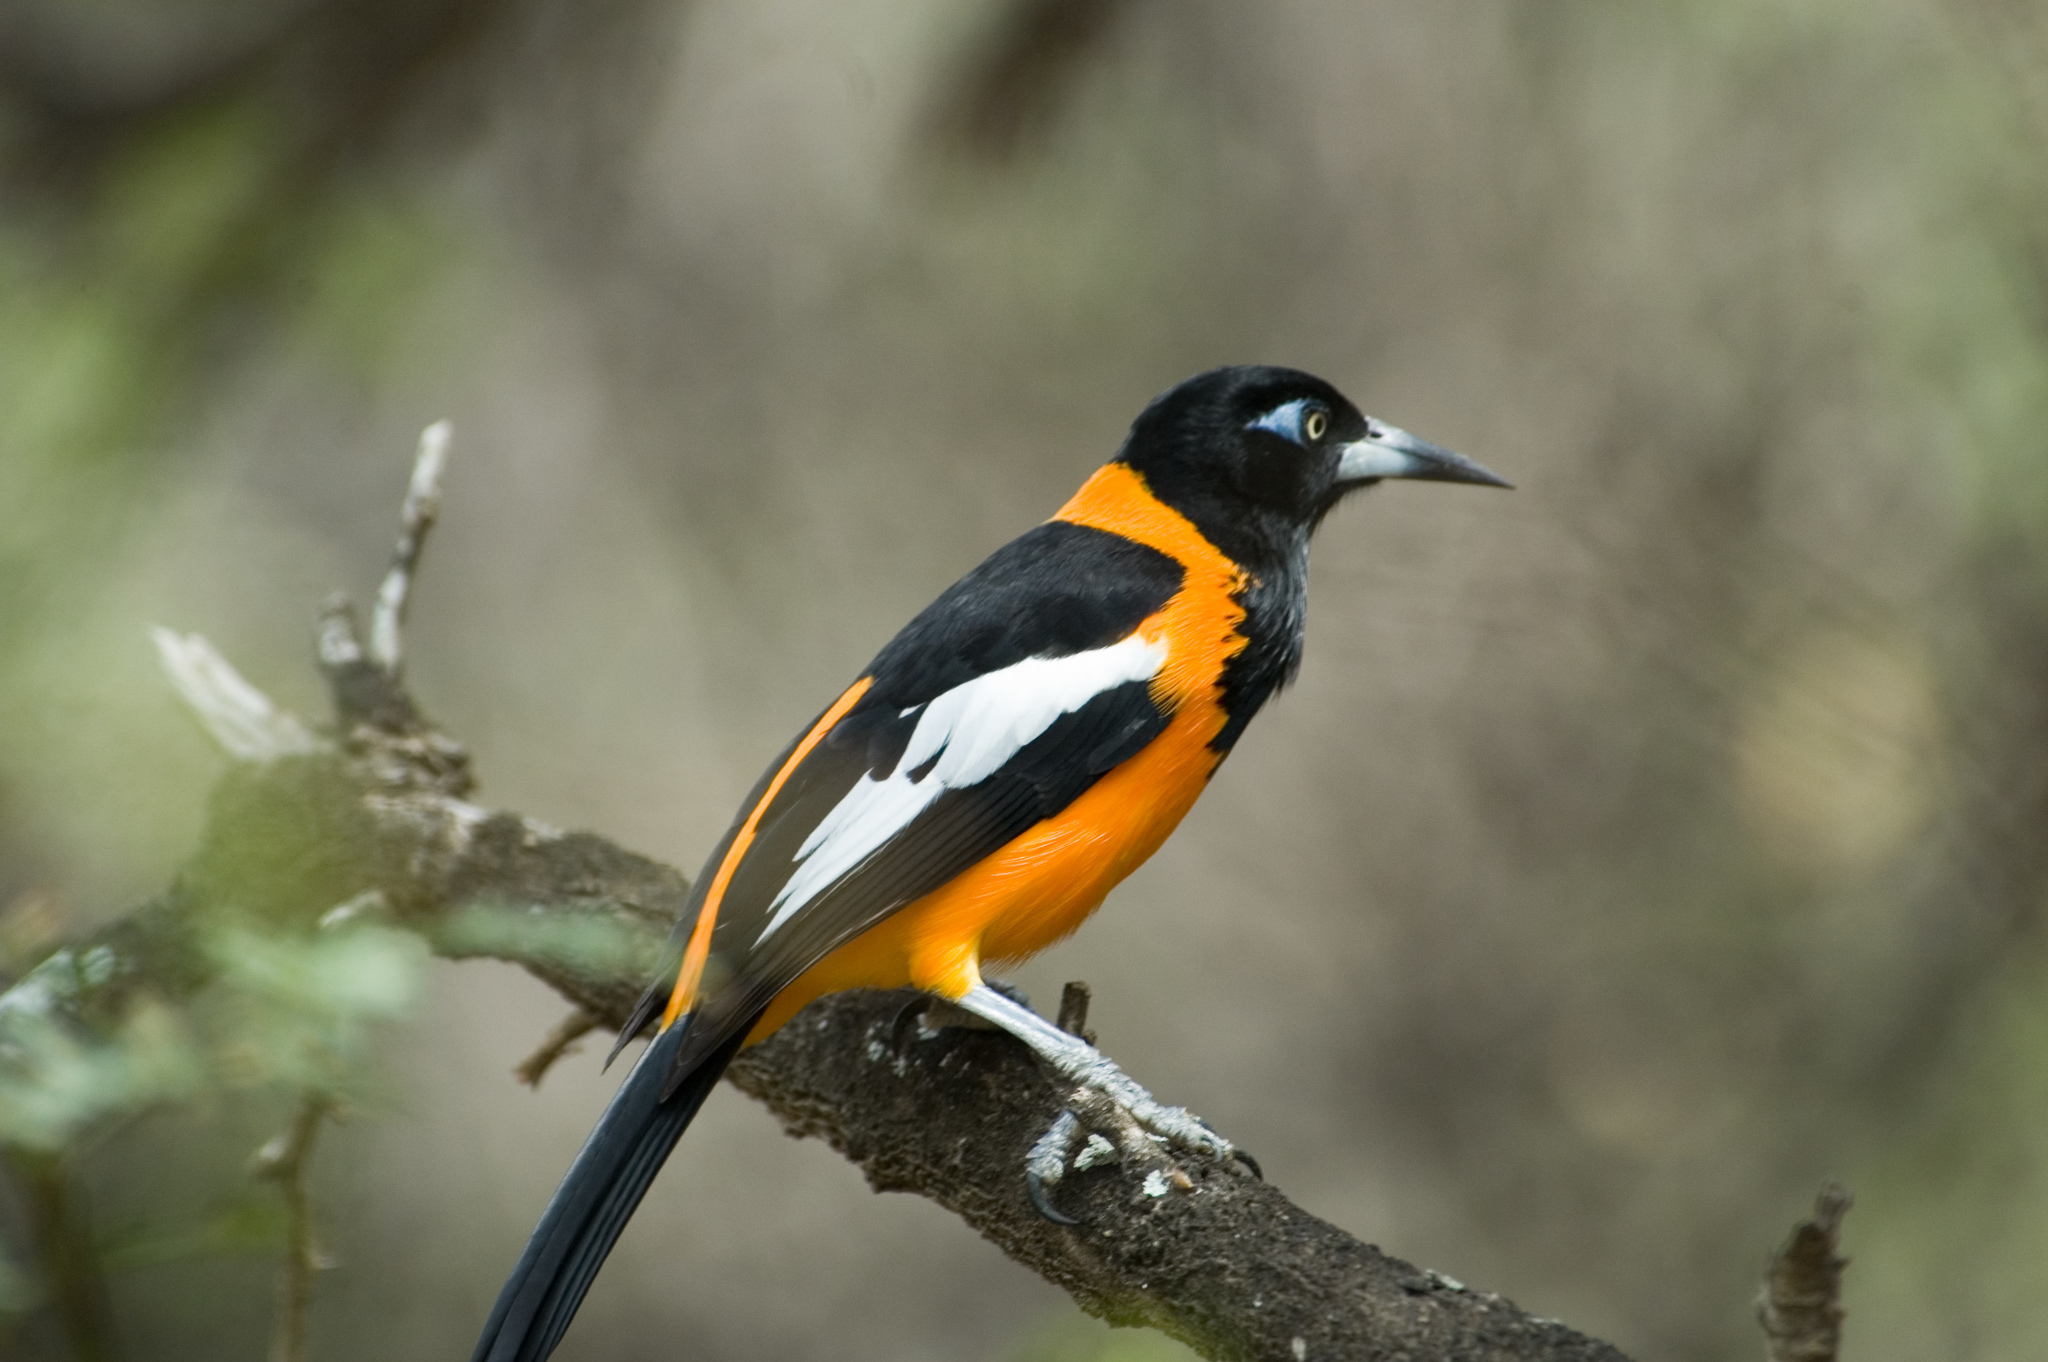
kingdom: Animalia
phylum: Chordata
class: Aves
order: Passeriformes
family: Icteridae
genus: Icterus
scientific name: Icterus icterus
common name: Venezuelan troupial
